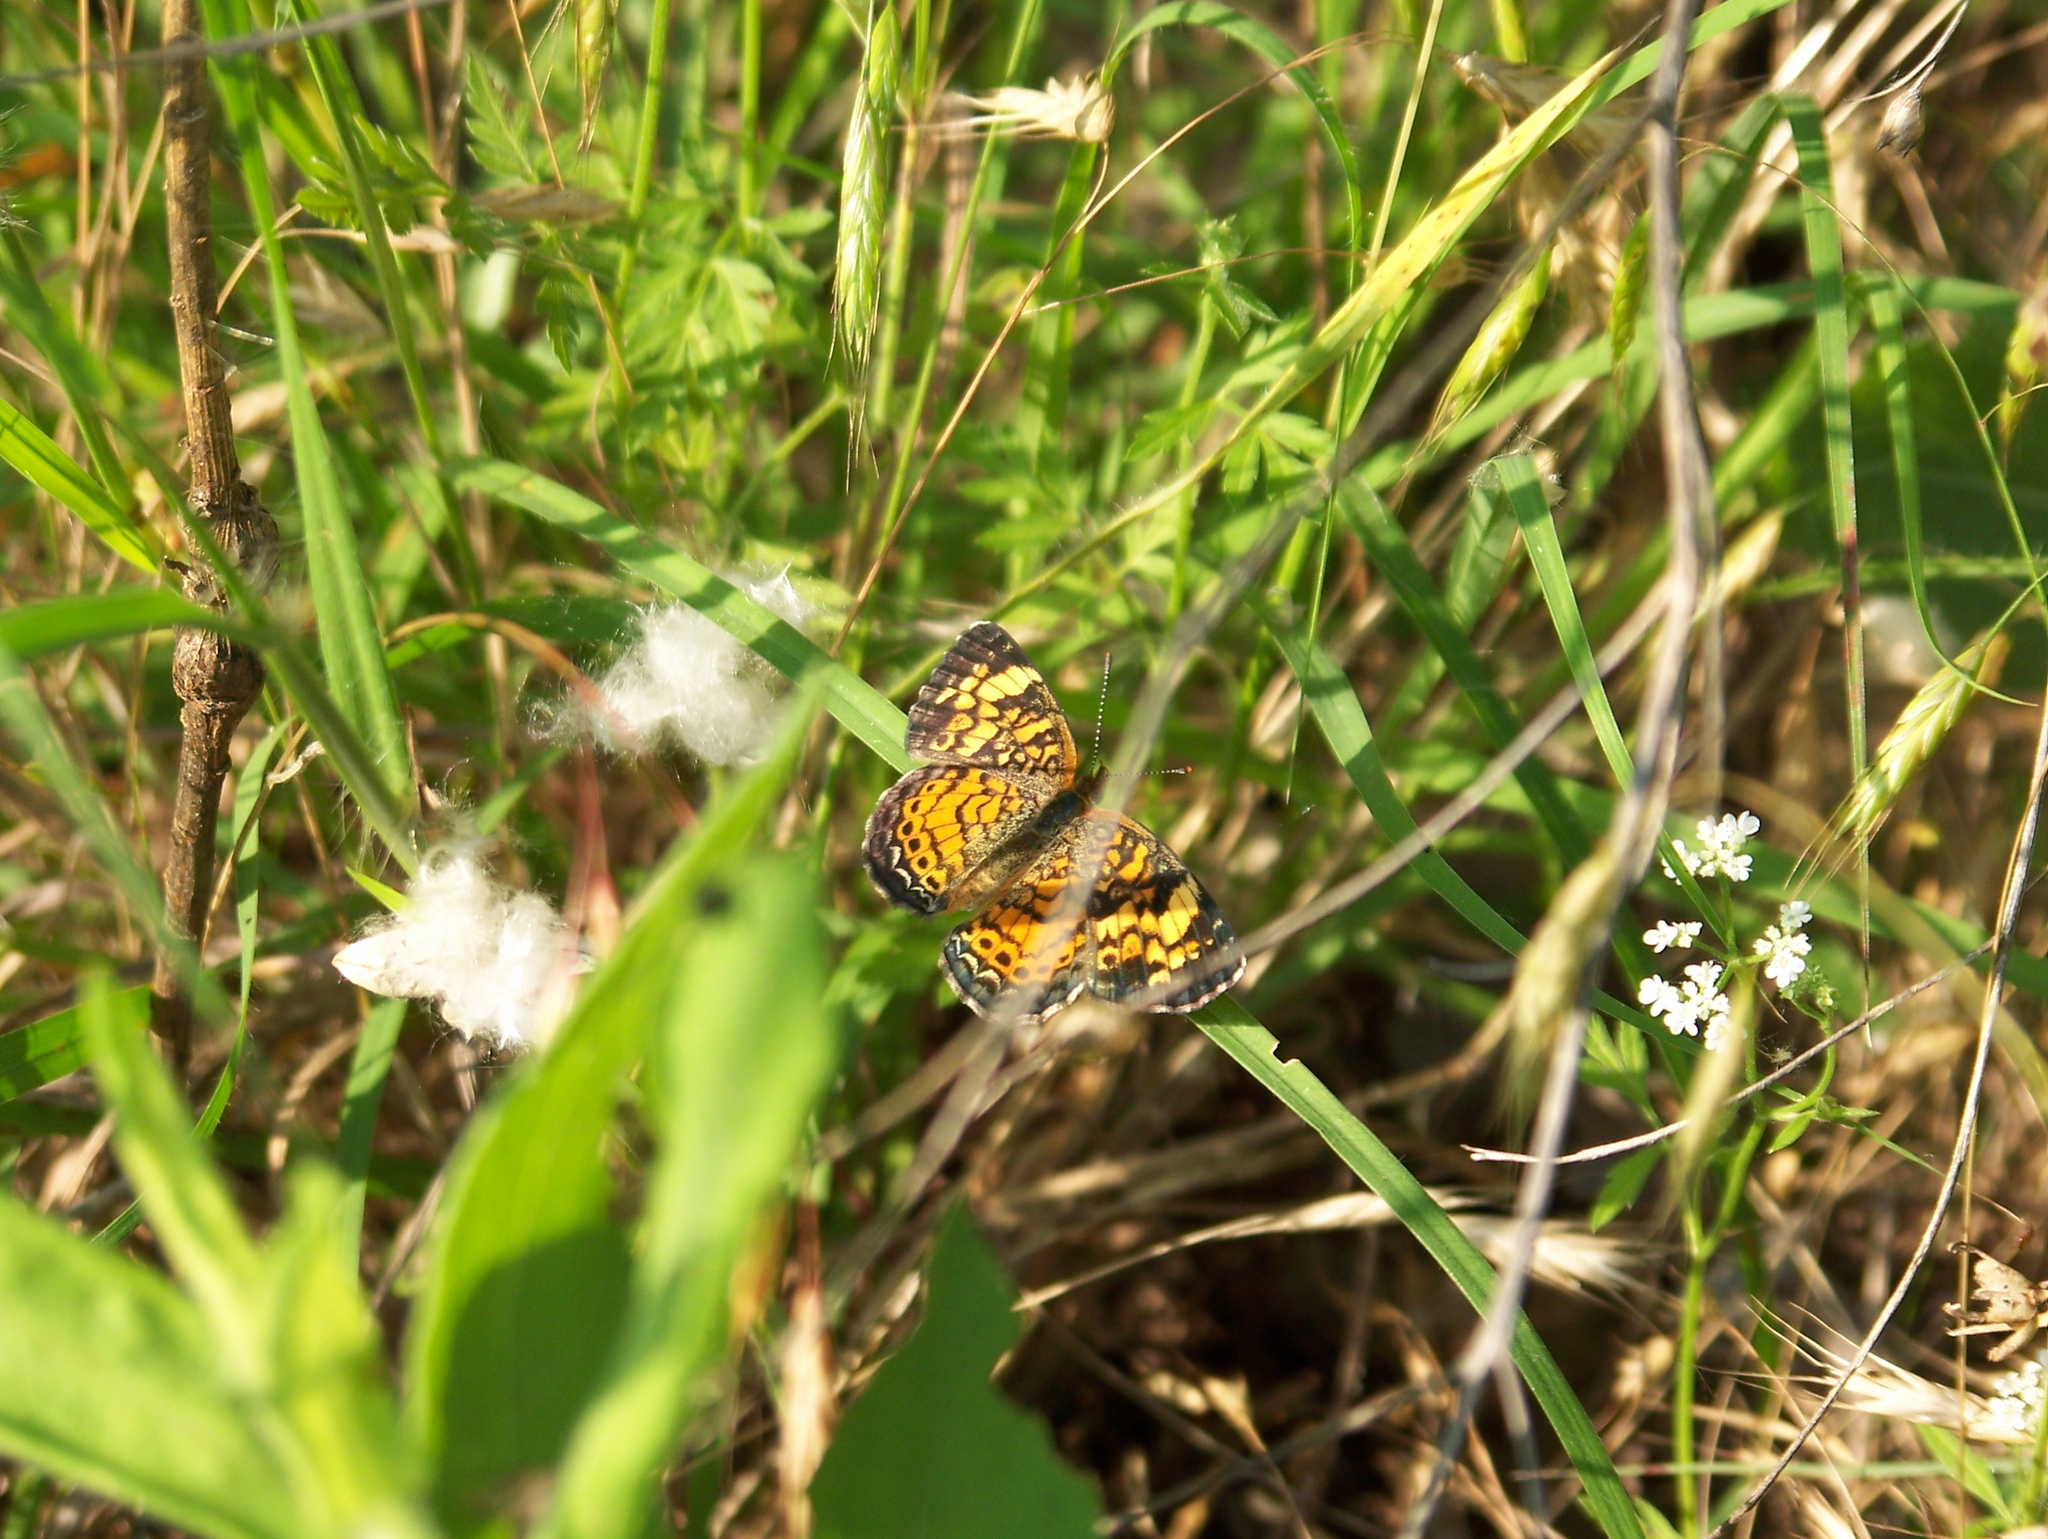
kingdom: Animalia
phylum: Arthropoda
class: Insecta
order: Lepidoptera
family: Nymphalidae
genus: Phyciodes
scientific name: Phyciodes tharos
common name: Pearl crescent
